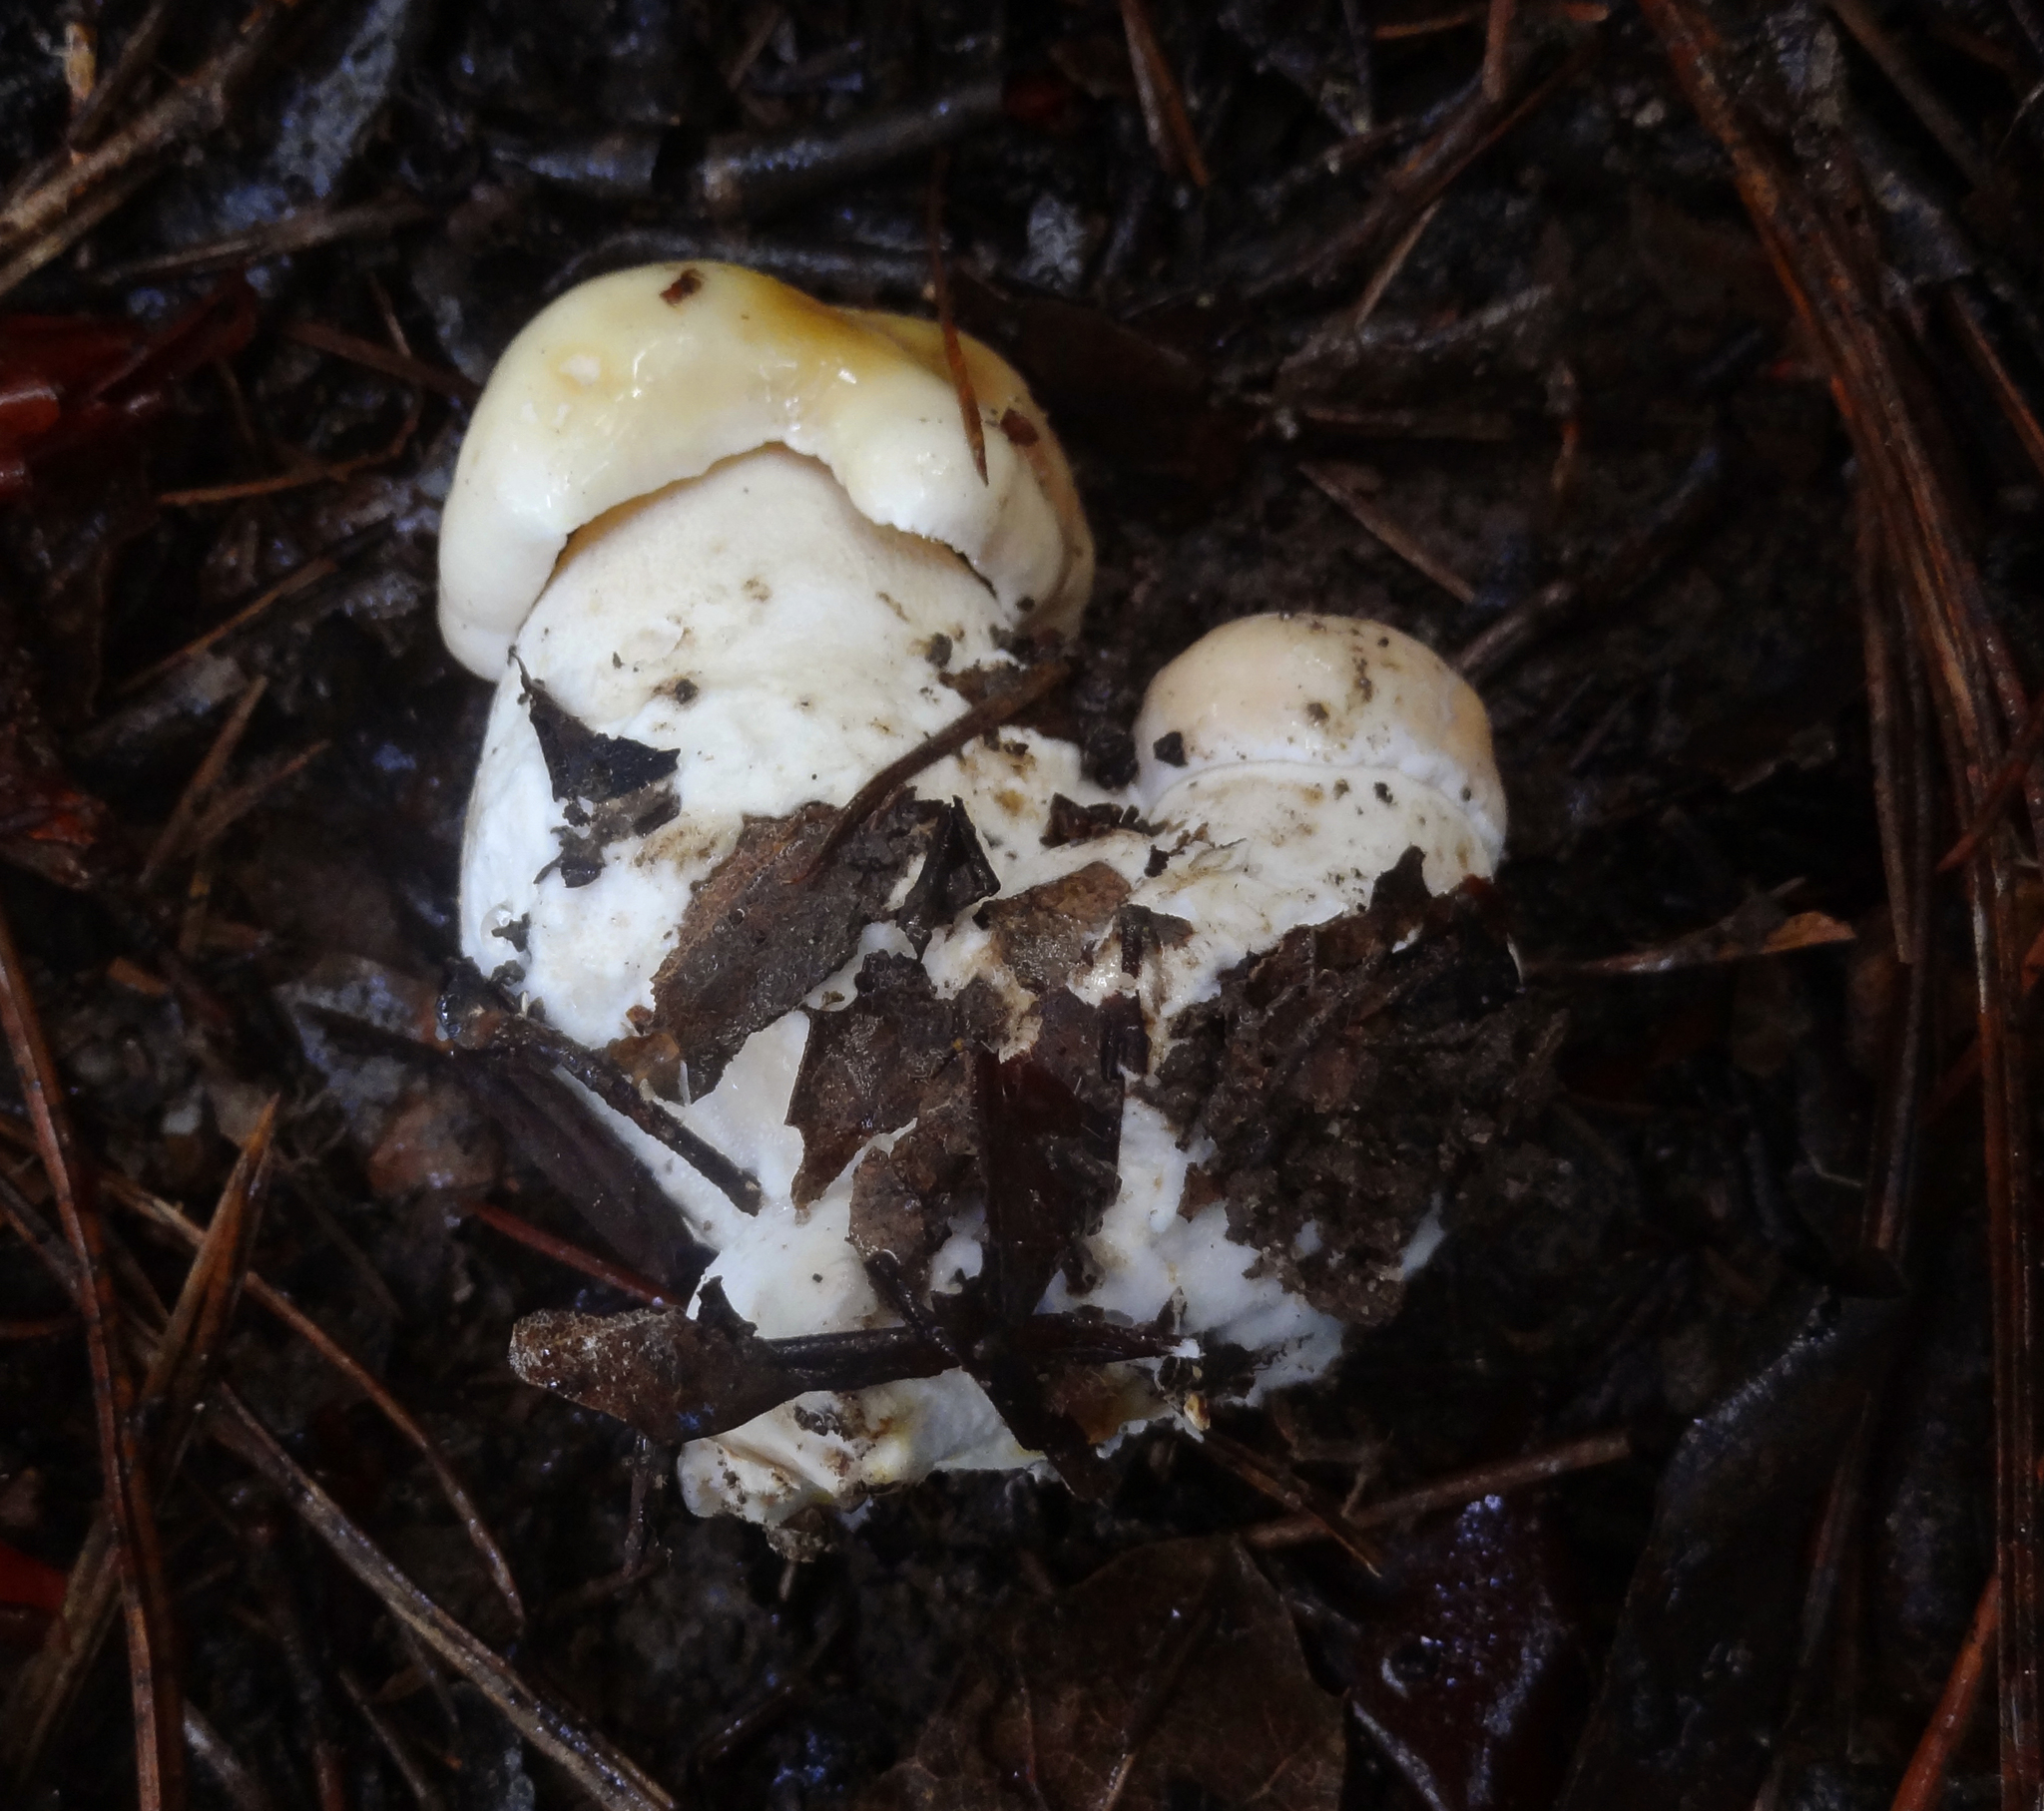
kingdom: Fungi
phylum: Basidiomycota
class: Agaricomycetes
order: Boletales
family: Boletaceae
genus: Boletus
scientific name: Boletus edulis
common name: Cep
